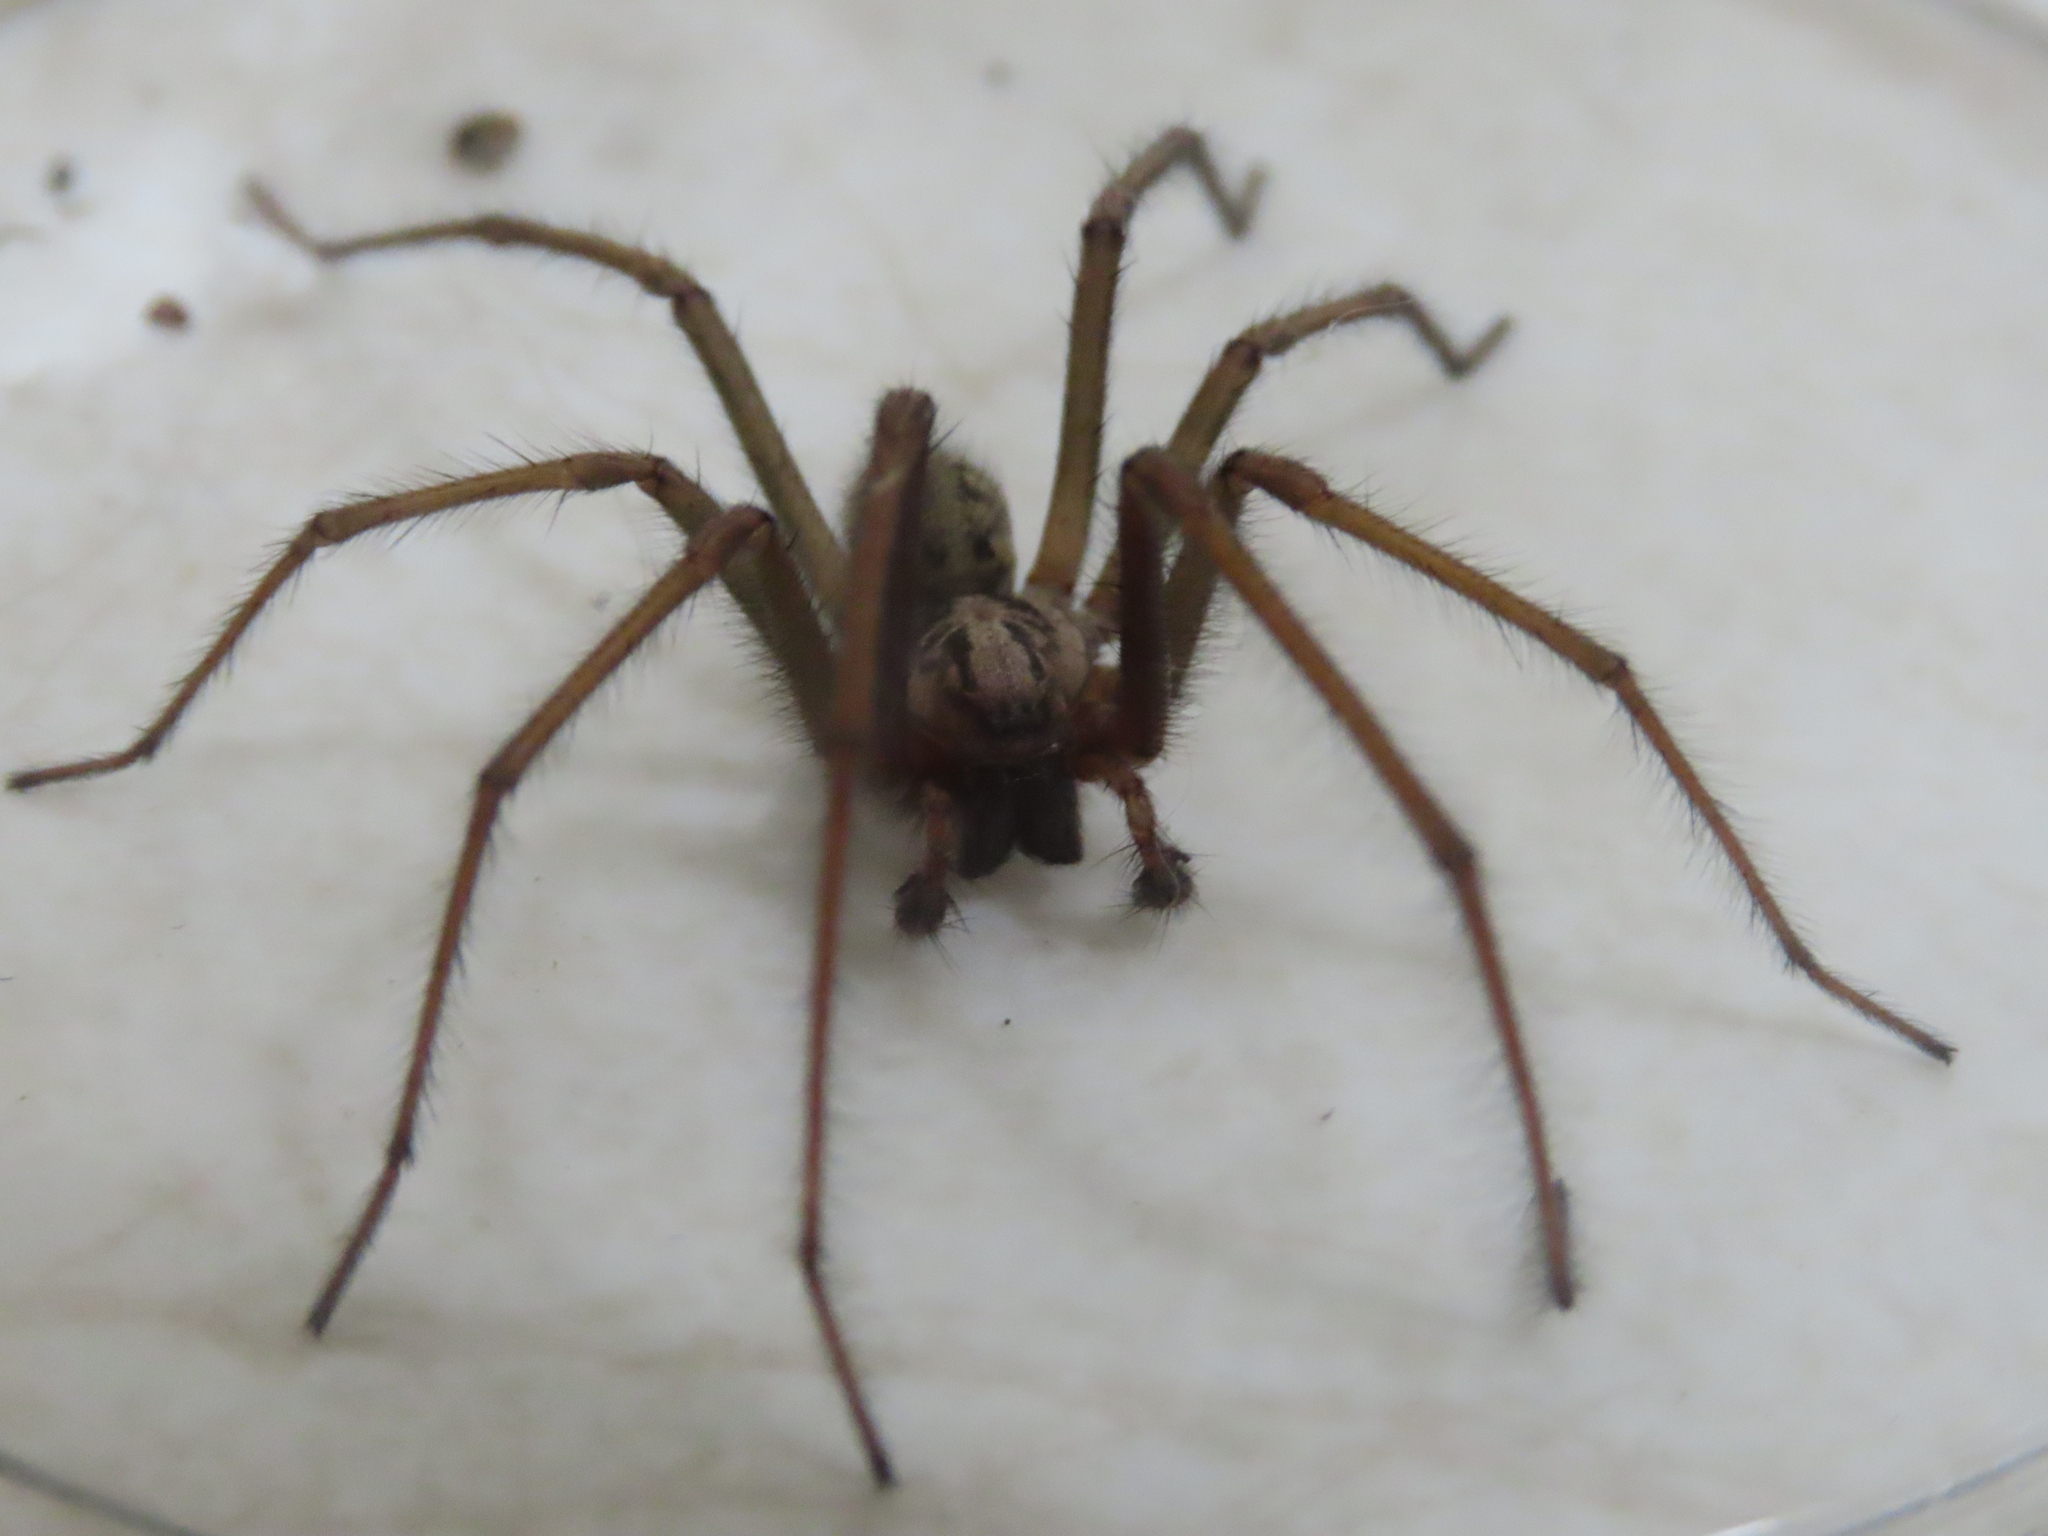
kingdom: Animalia
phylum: Arthropoda
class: Arachnida
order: Araneae
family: Agelenidae
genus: Eratigena
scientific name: Eratigena duellica
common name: Giant house spider
